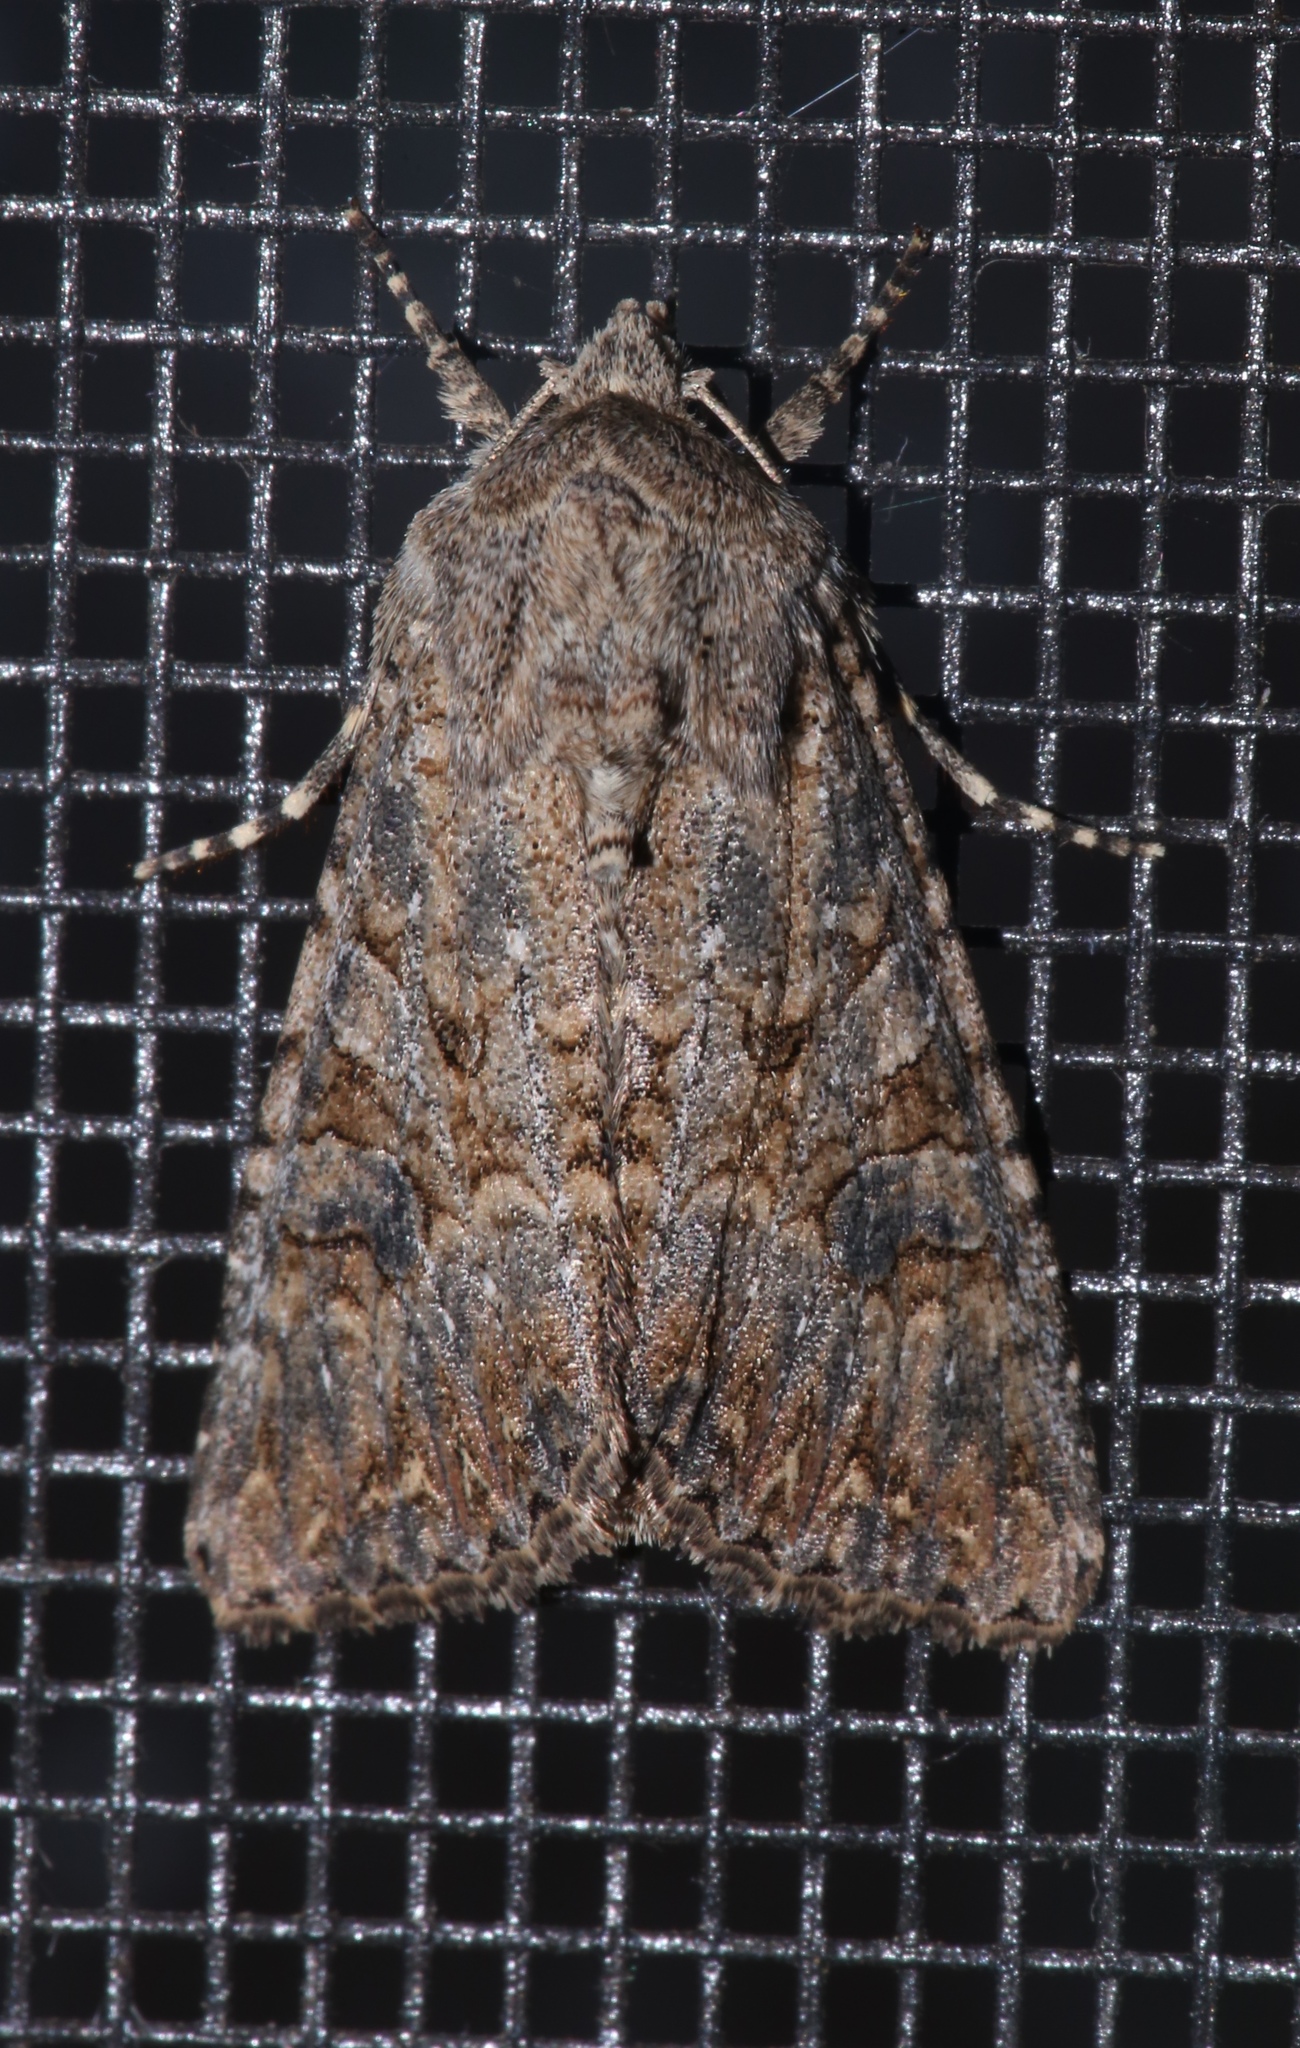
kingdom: Animalia
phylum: Arthropoda
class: Insecta
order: Lepidoptera
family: Noctuidae
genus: Anarta
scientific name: Anarta trifolii
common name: Clover cutworm moth
